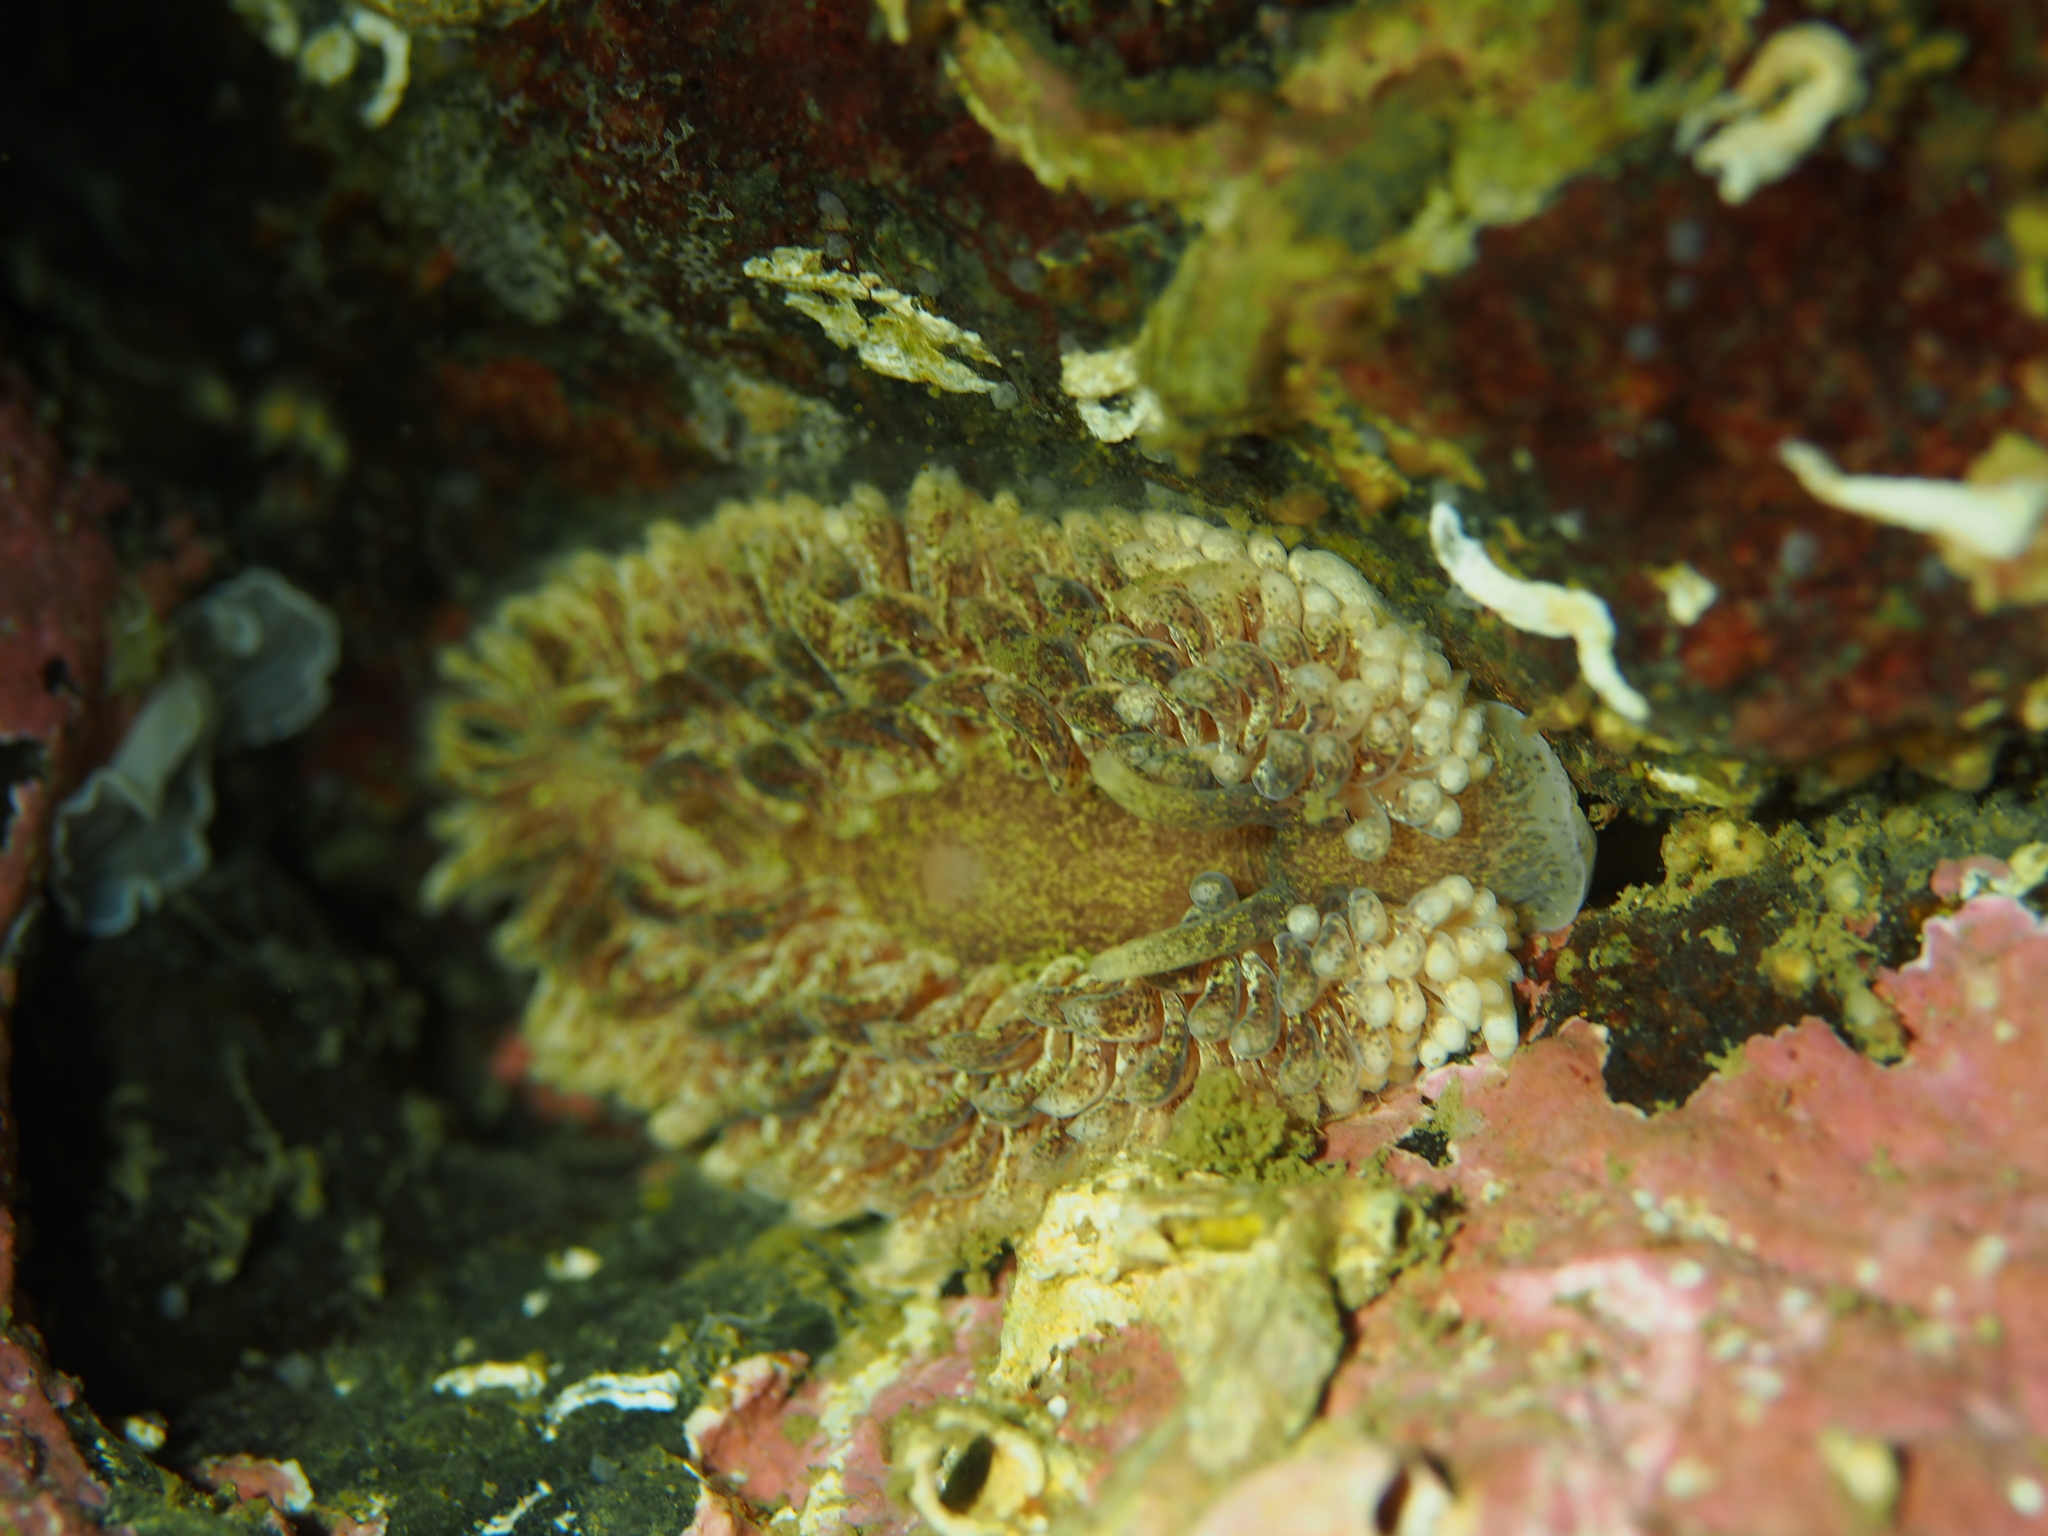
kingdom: Animalia
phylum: Mollusca
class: Gastropoda
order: Nudibranchia
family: Aeolidiidae
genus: Aeolidia
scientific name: Aeolidia papillosa
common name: Common grey sea slug
